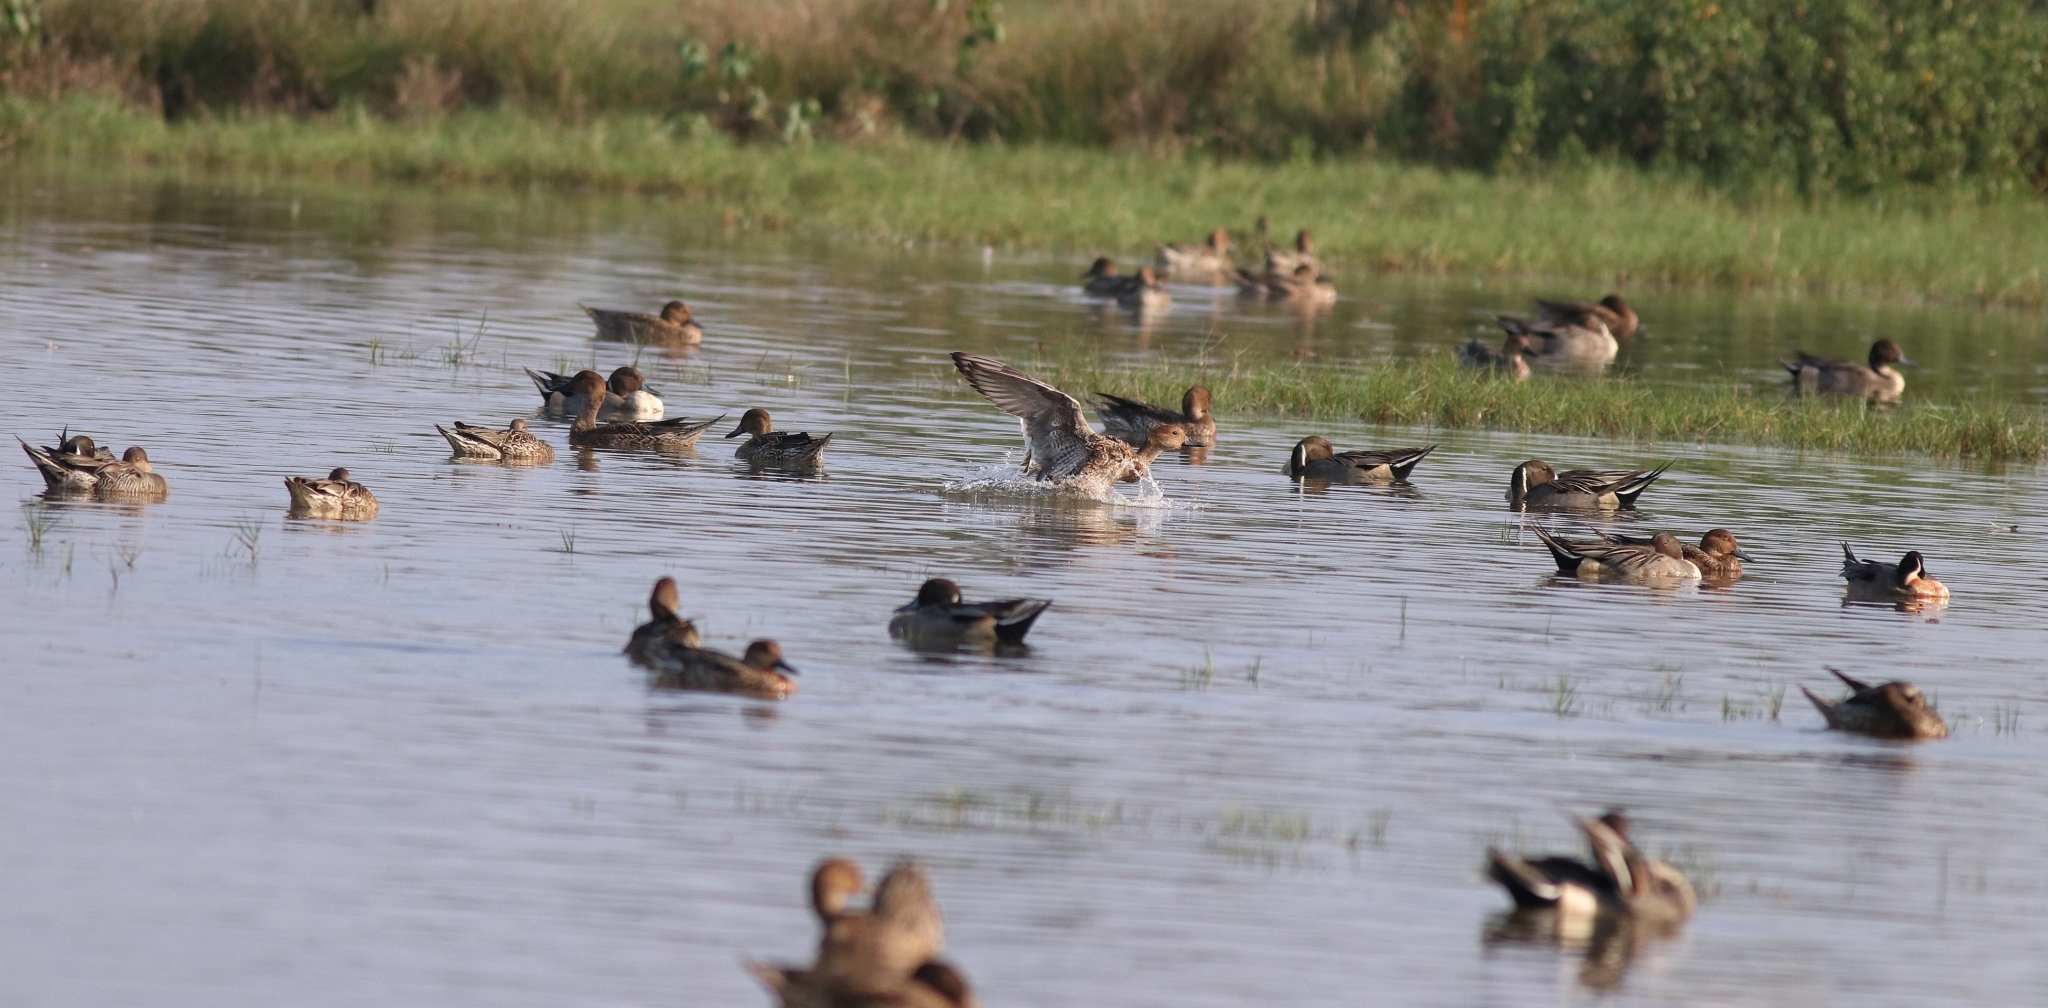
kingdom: Animalia
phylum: Chordata
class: Aves
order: Anseriformes
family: Anatidae
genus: Anas
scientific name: Anas acuta
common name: Northern pintail
